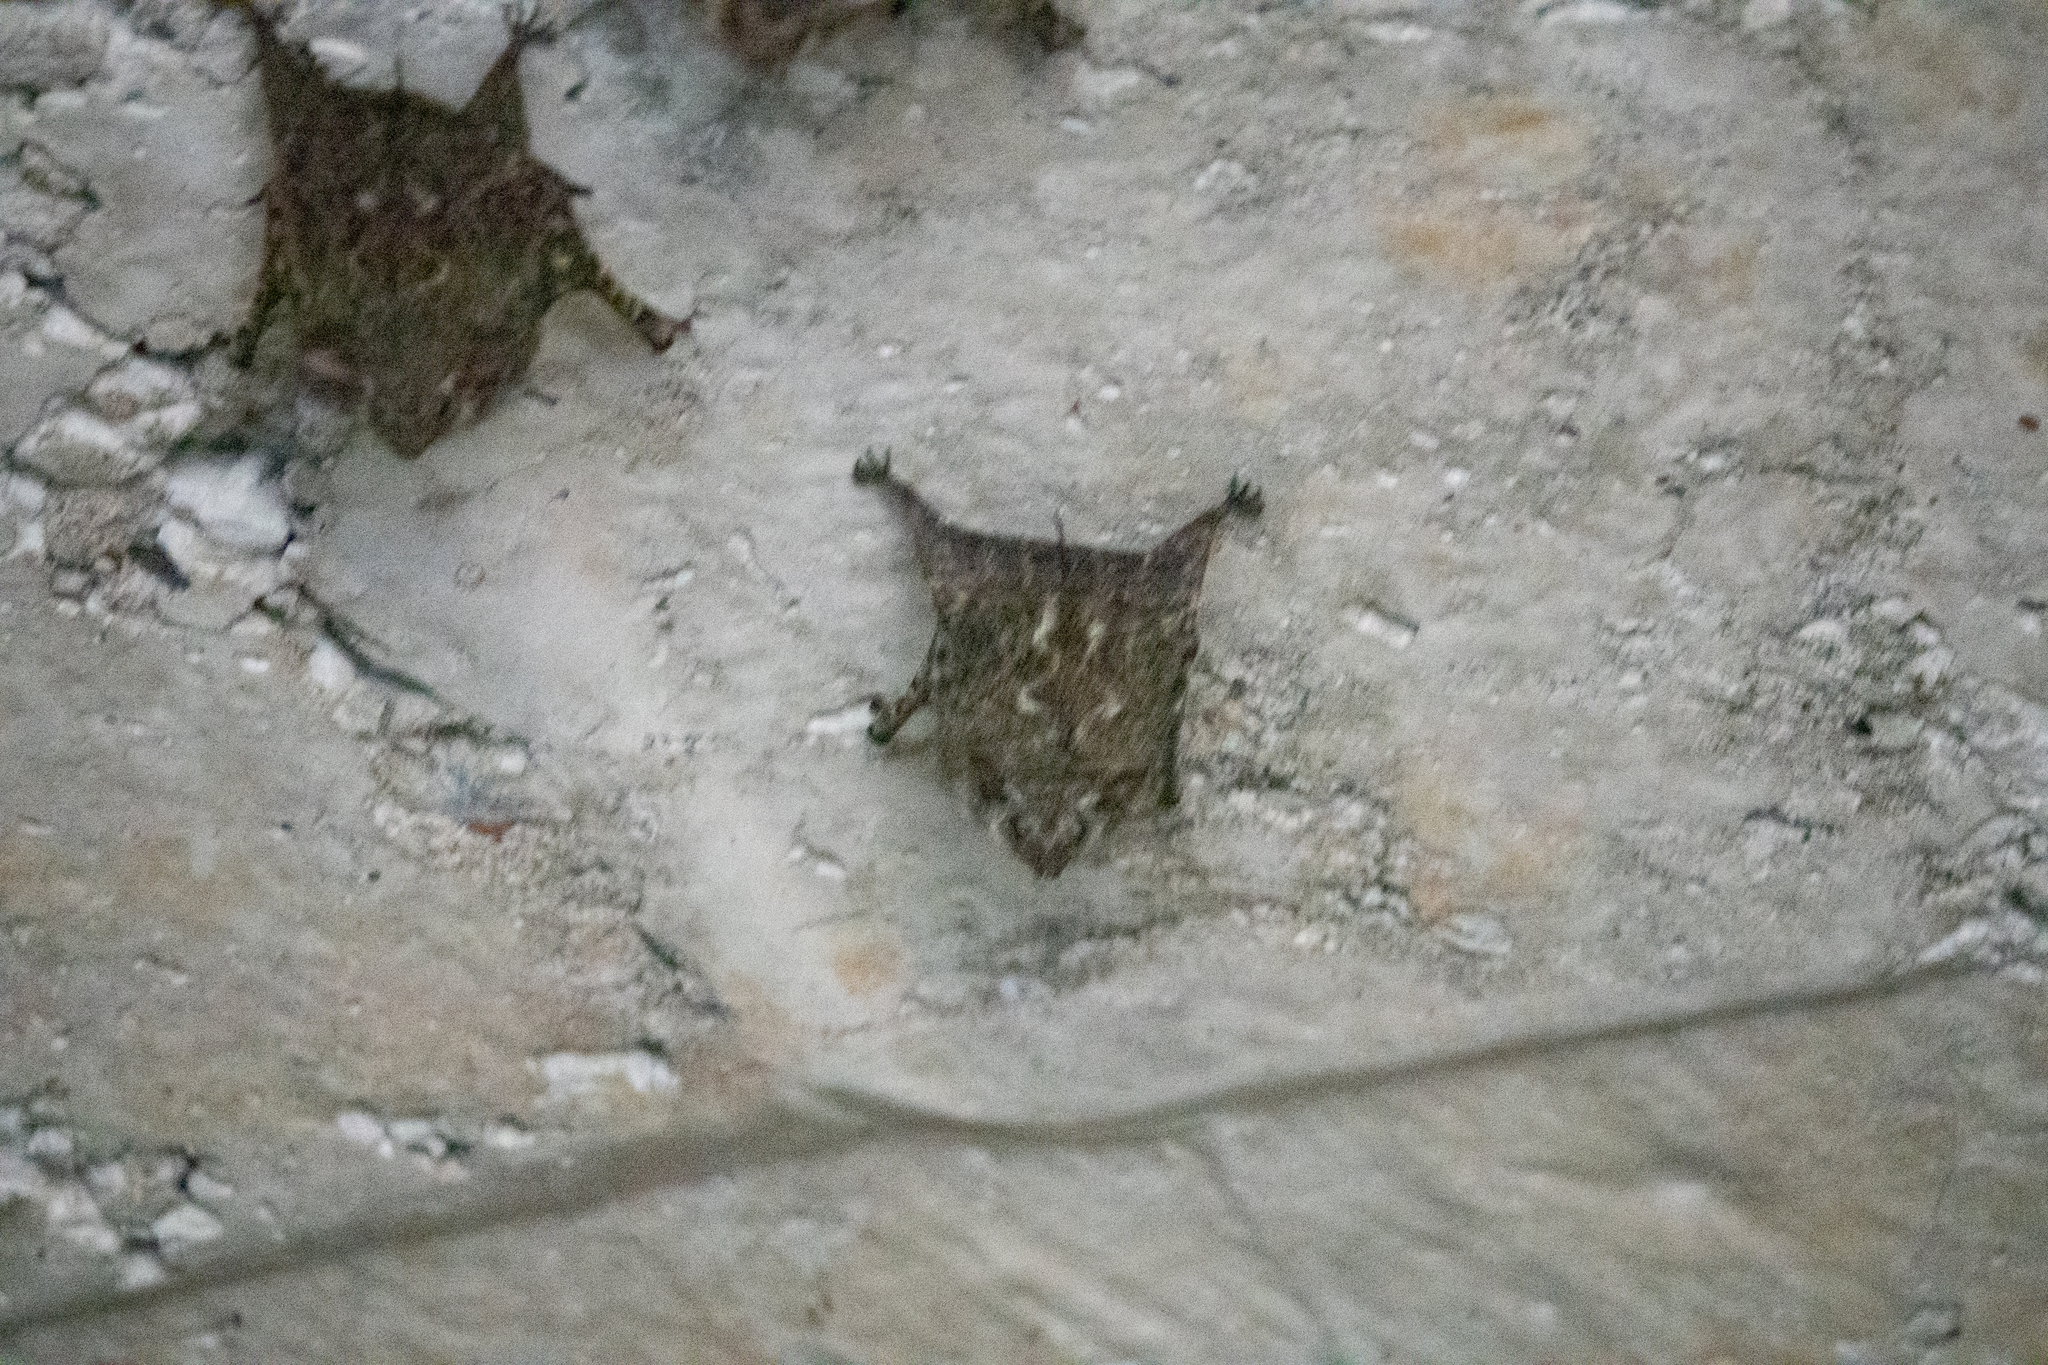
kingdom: Animalia
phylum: Chordata
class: Mammalia
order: Chiroptera
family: Emballonuridae
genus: Rhynchonycteris
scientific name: Rhynchonycteris naso
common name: Proboscis bat
